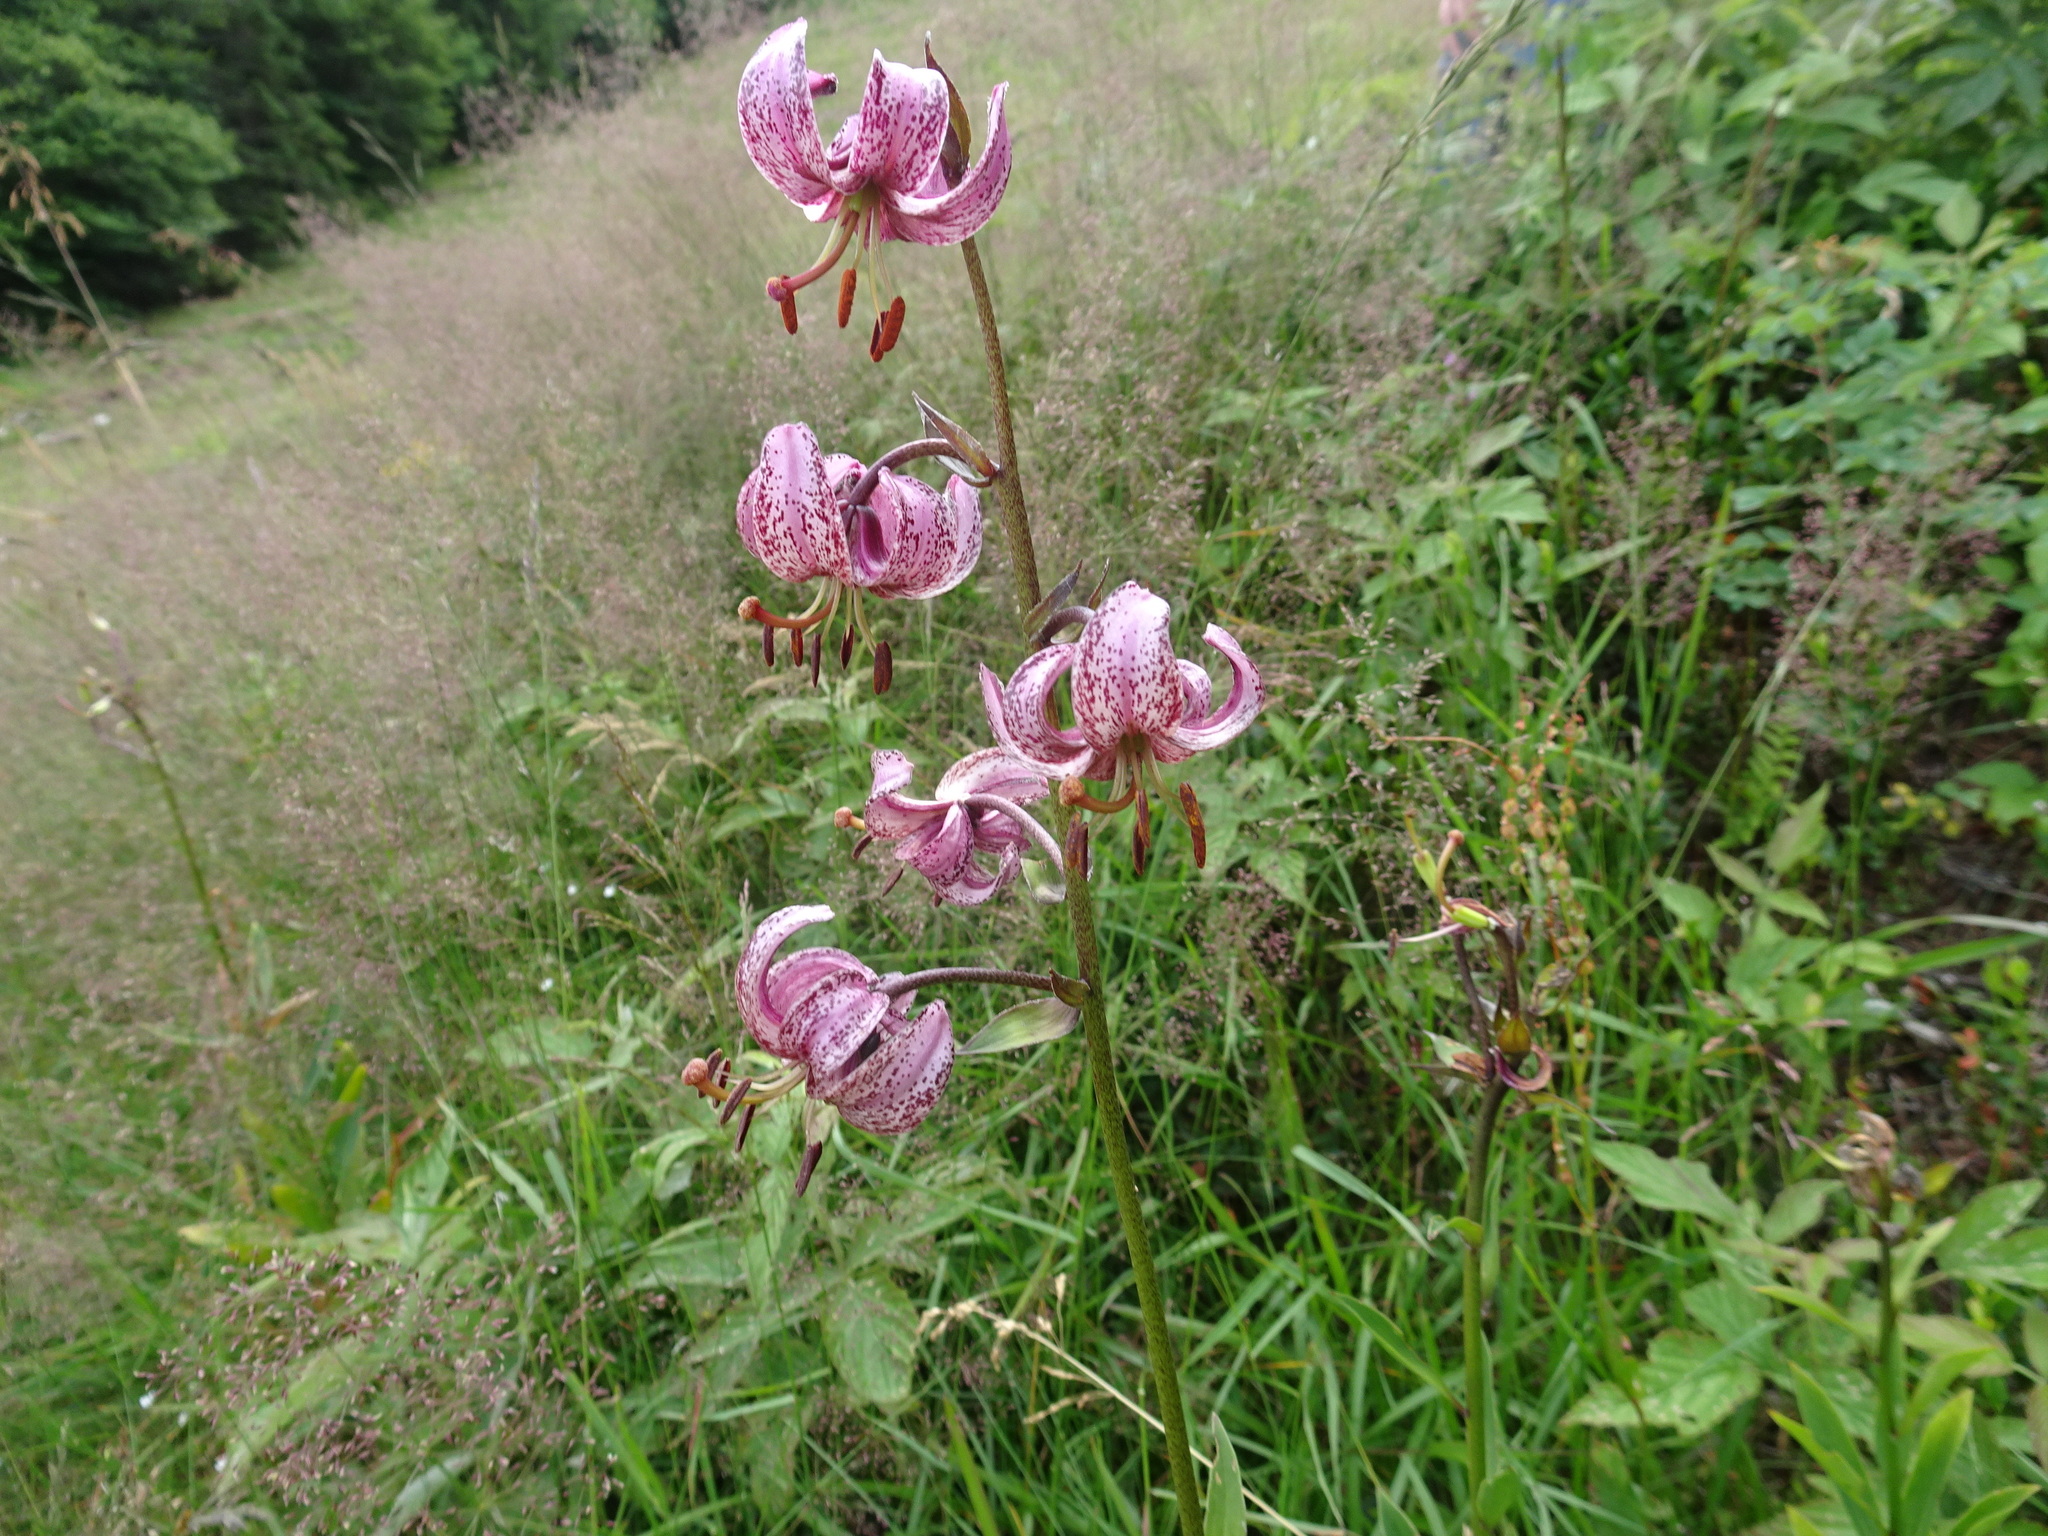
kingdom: Plantae
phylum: Tracheophyta
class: Liliopsida
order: Liliales
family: Liliaceae
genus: Lilium
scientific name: Lilium martagon
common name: Martagon lily
